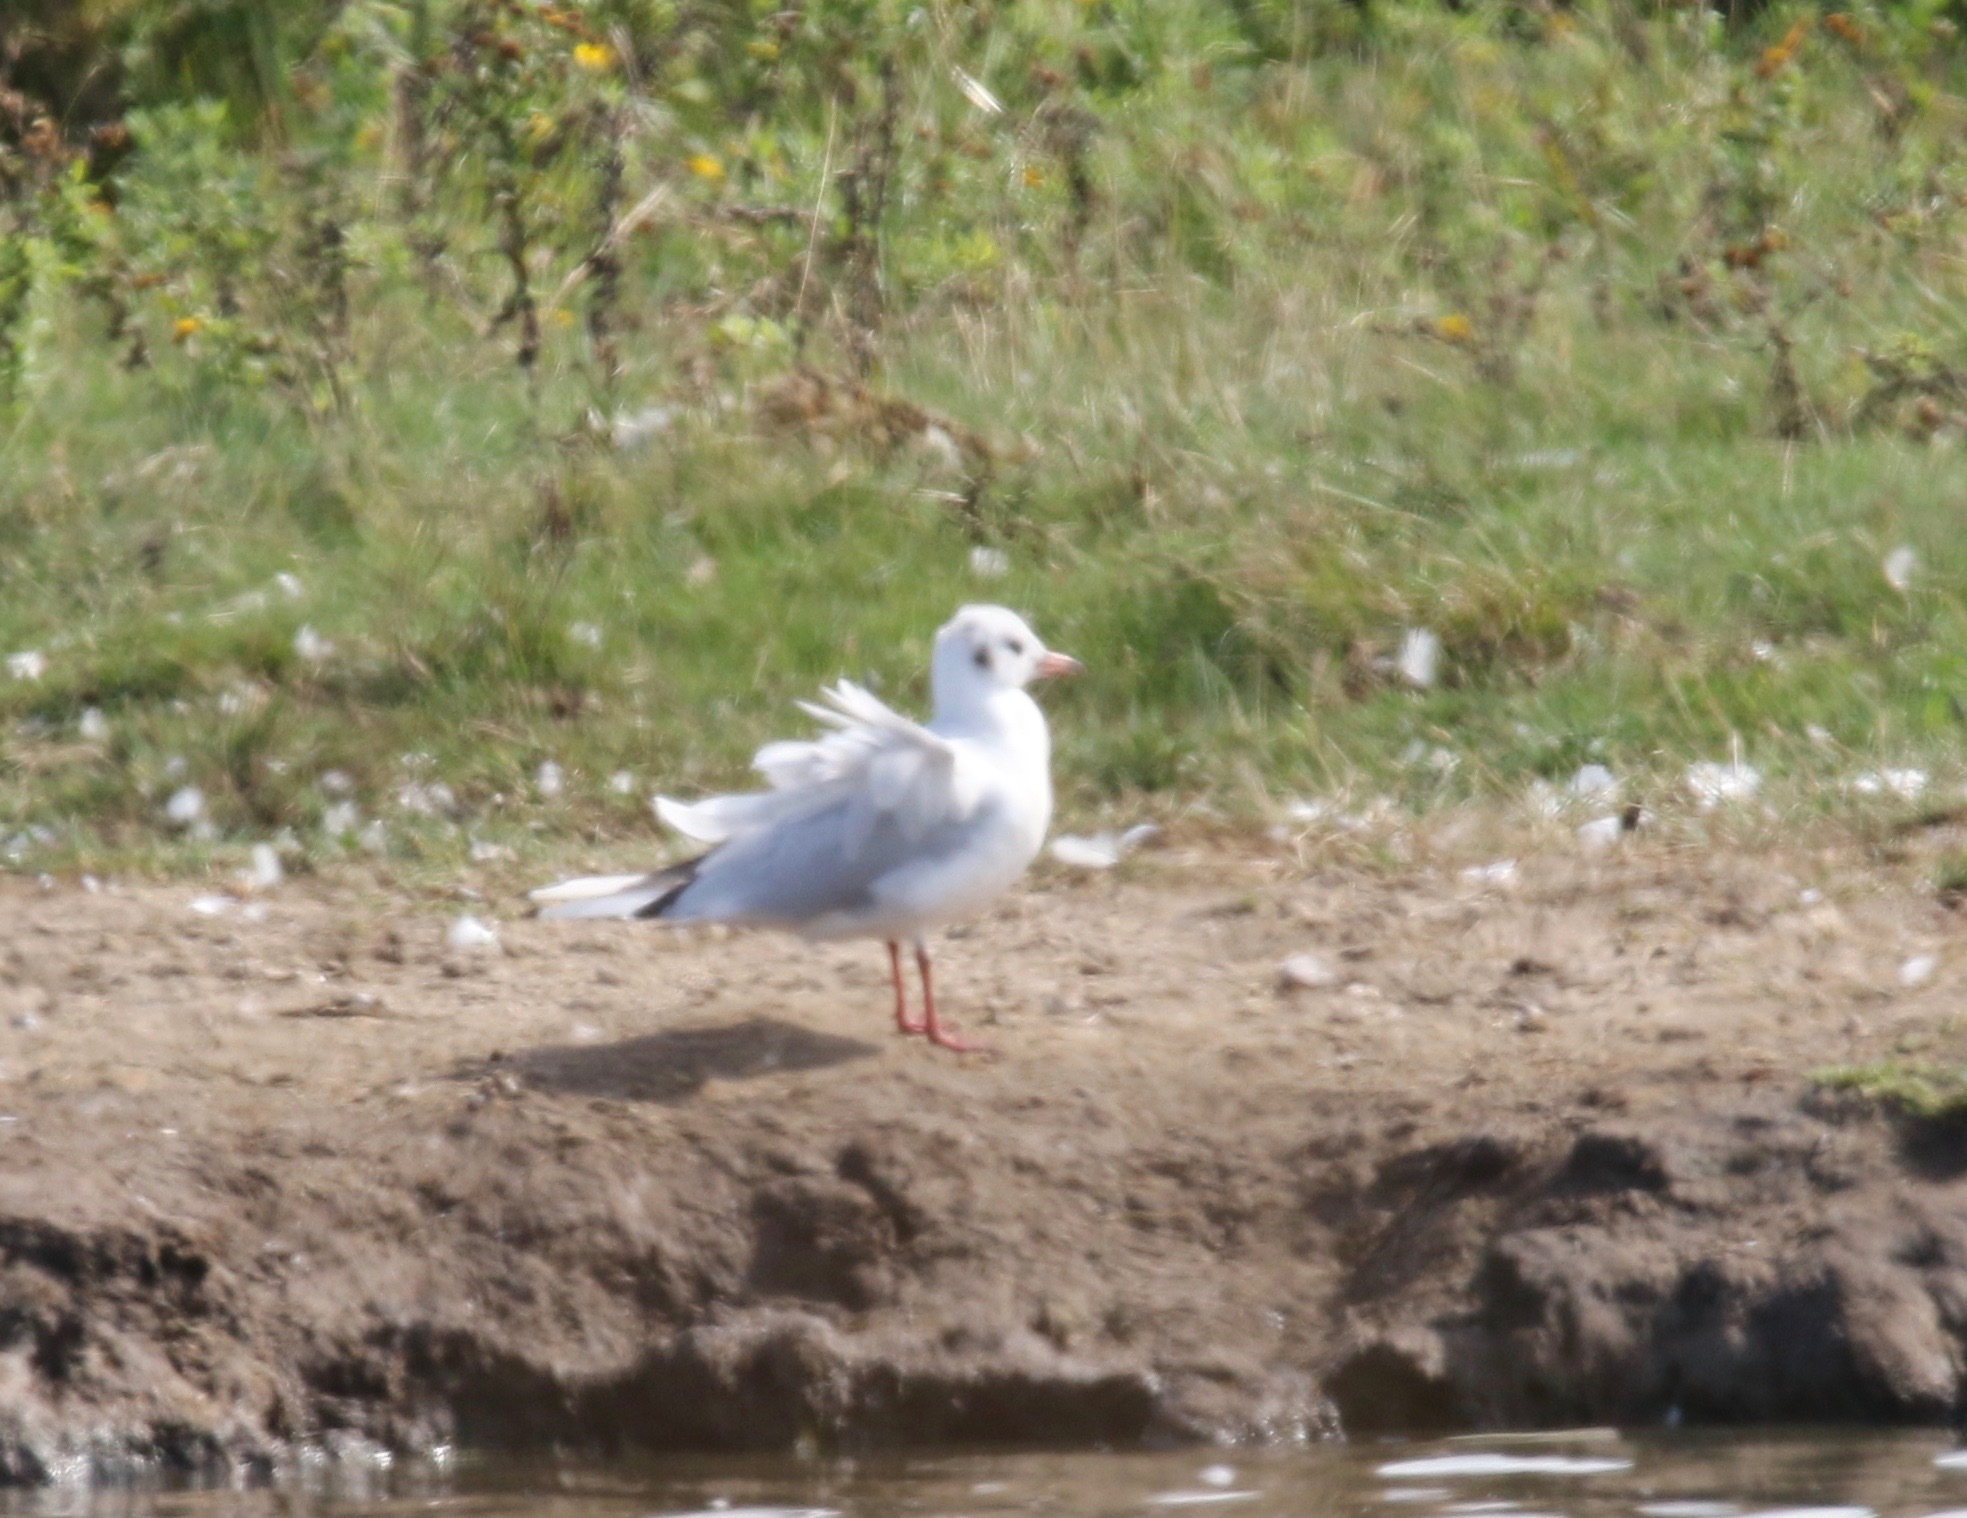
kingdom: Animalia
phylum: Chordata
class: Aves
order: Charadriiformes
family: Laridae
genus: Chroicocephalus
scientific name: Chroicocephalus ridibundus
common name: Black-headed gull
